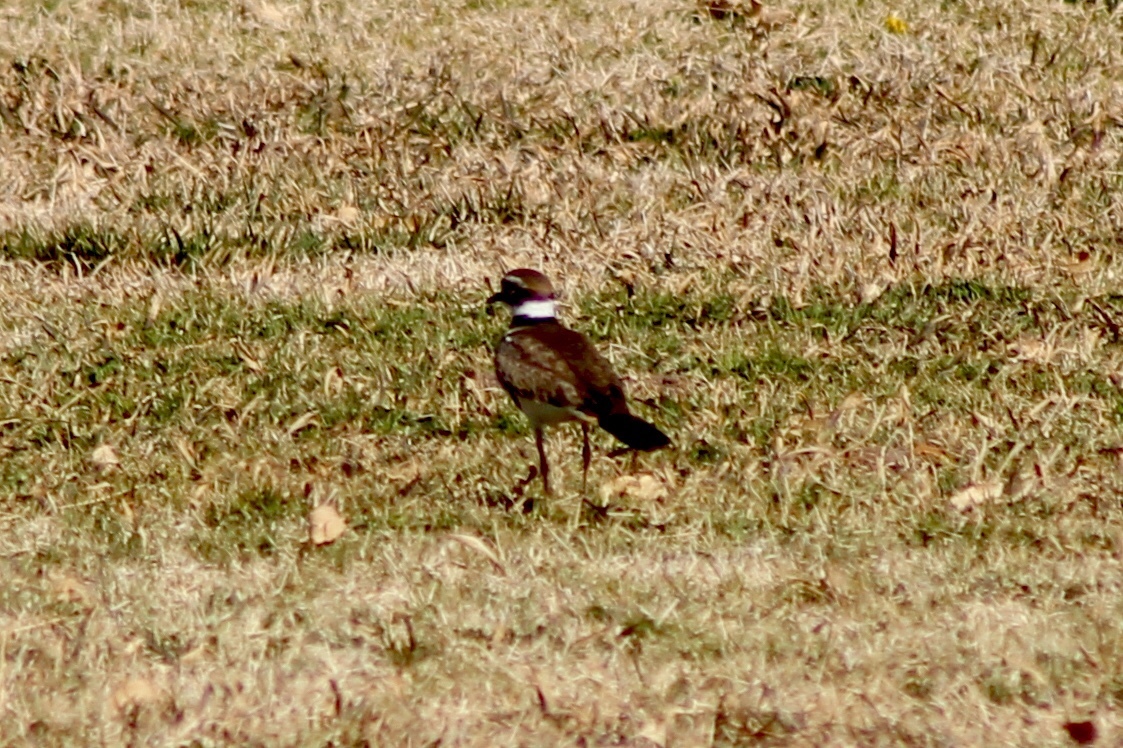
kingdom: Animalia
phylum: Chordata
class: Aves
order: Charadriiformes
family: Charadriidae
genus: Charadrius
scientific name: Charadrius vociferus
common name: Killdeer
